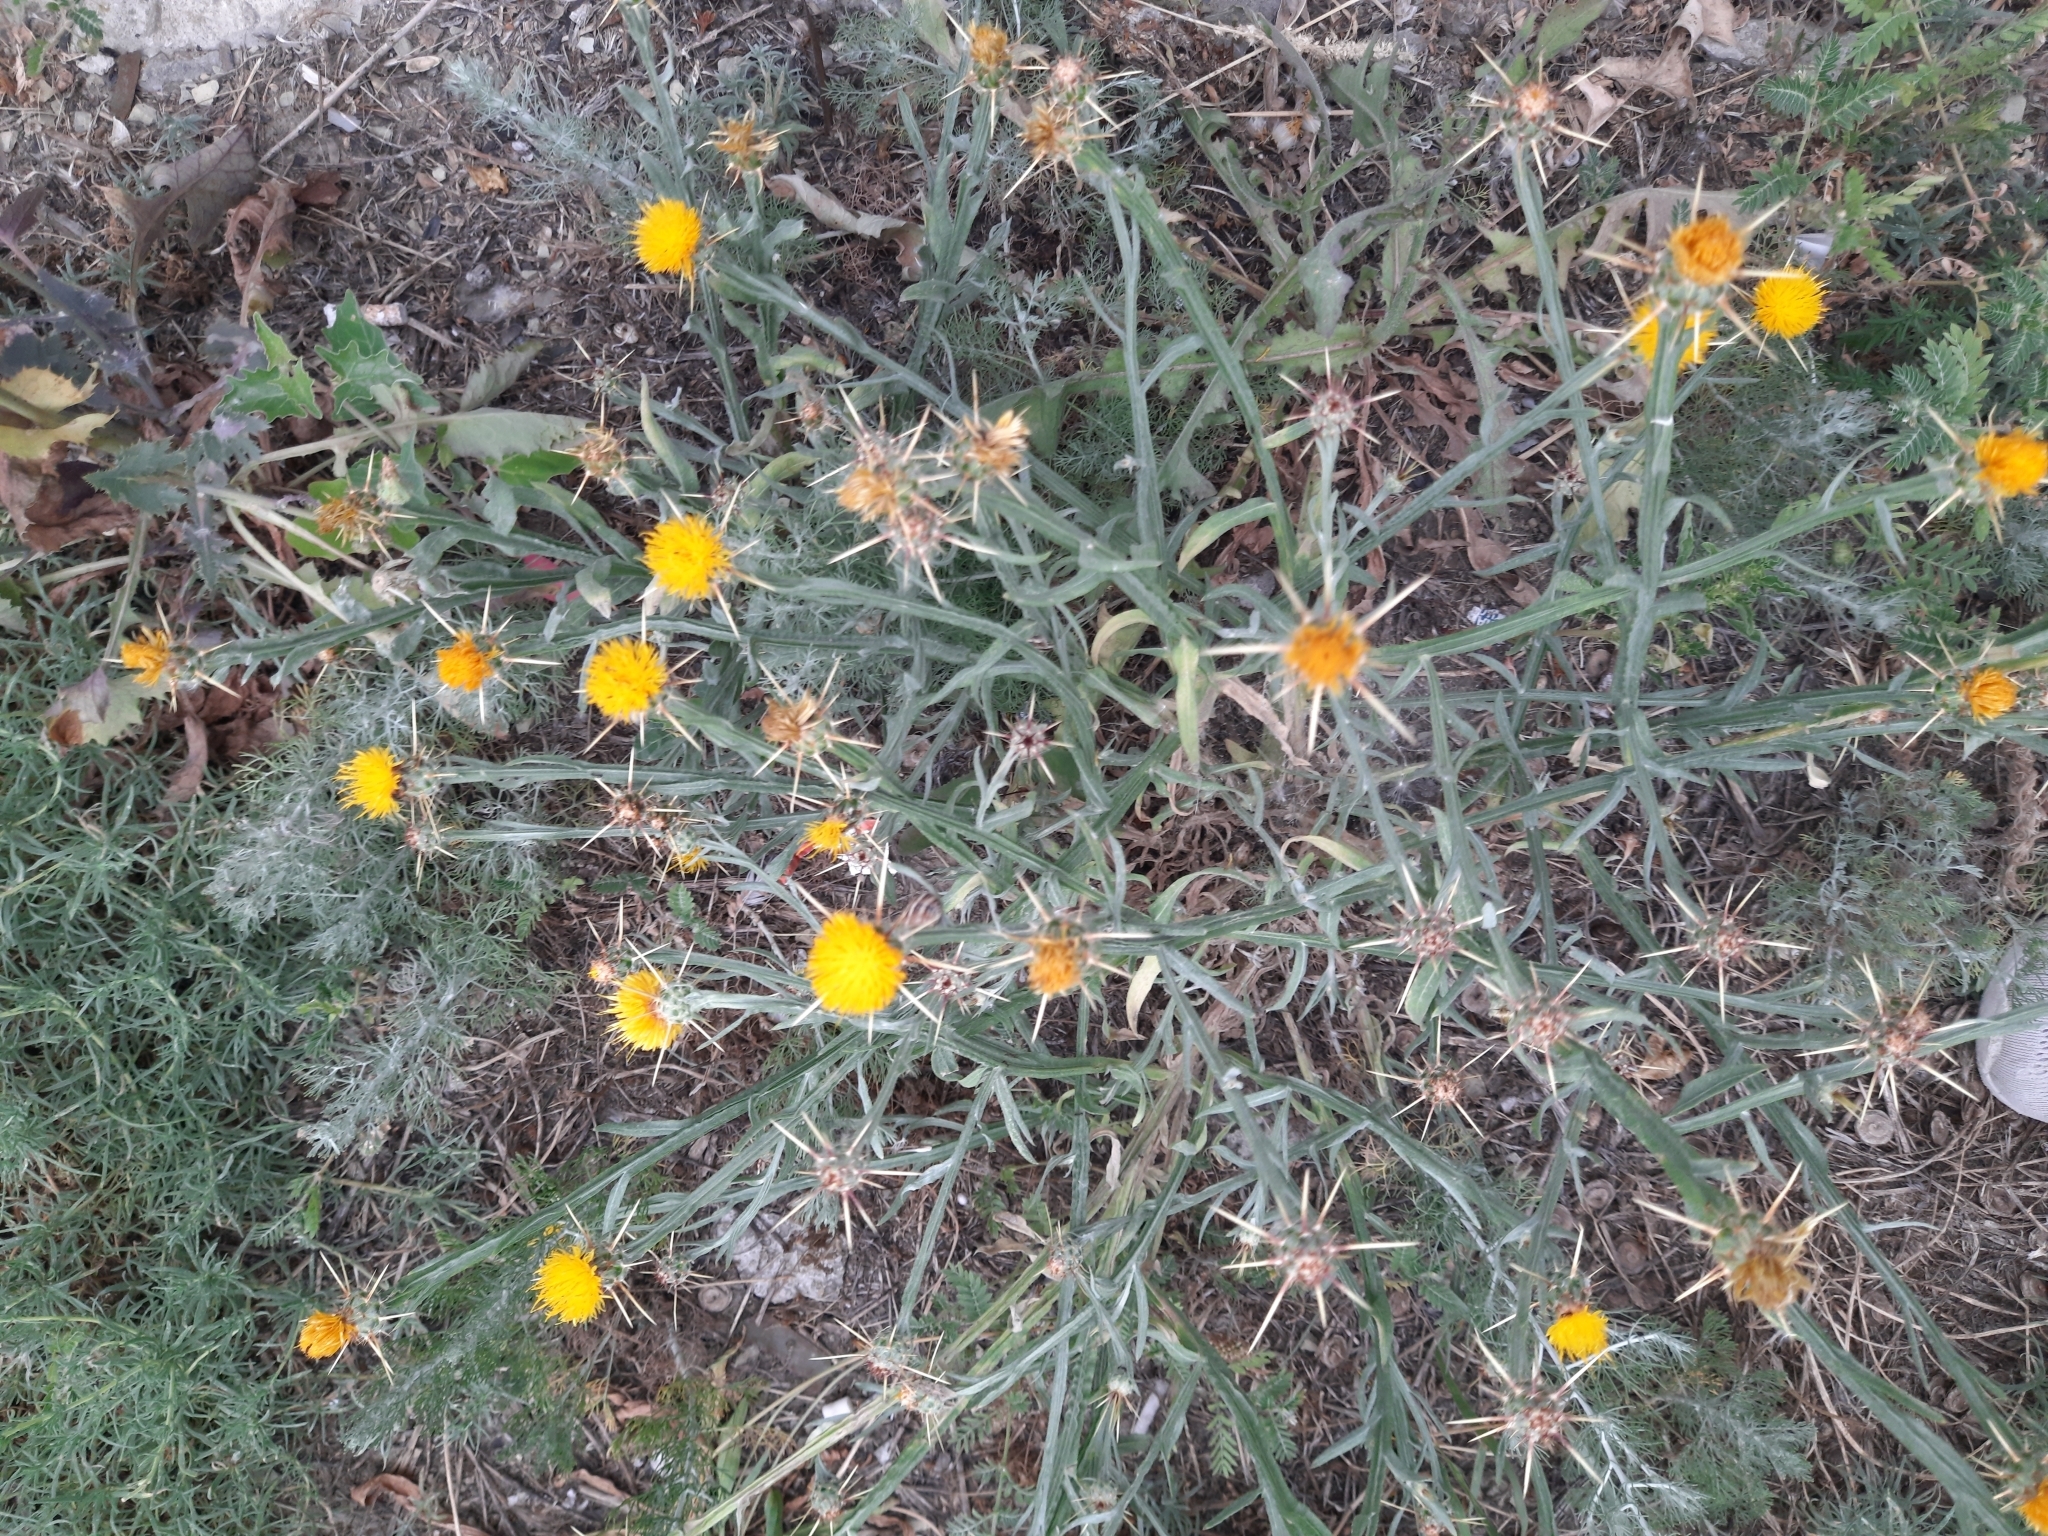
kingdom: Plantae
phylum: Tracheophyta
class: Magnoliopsida
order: Asterales
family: Asteraceae
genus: Centaurea
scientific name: Centaurea solstitialis
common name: Yellow star-thistle
